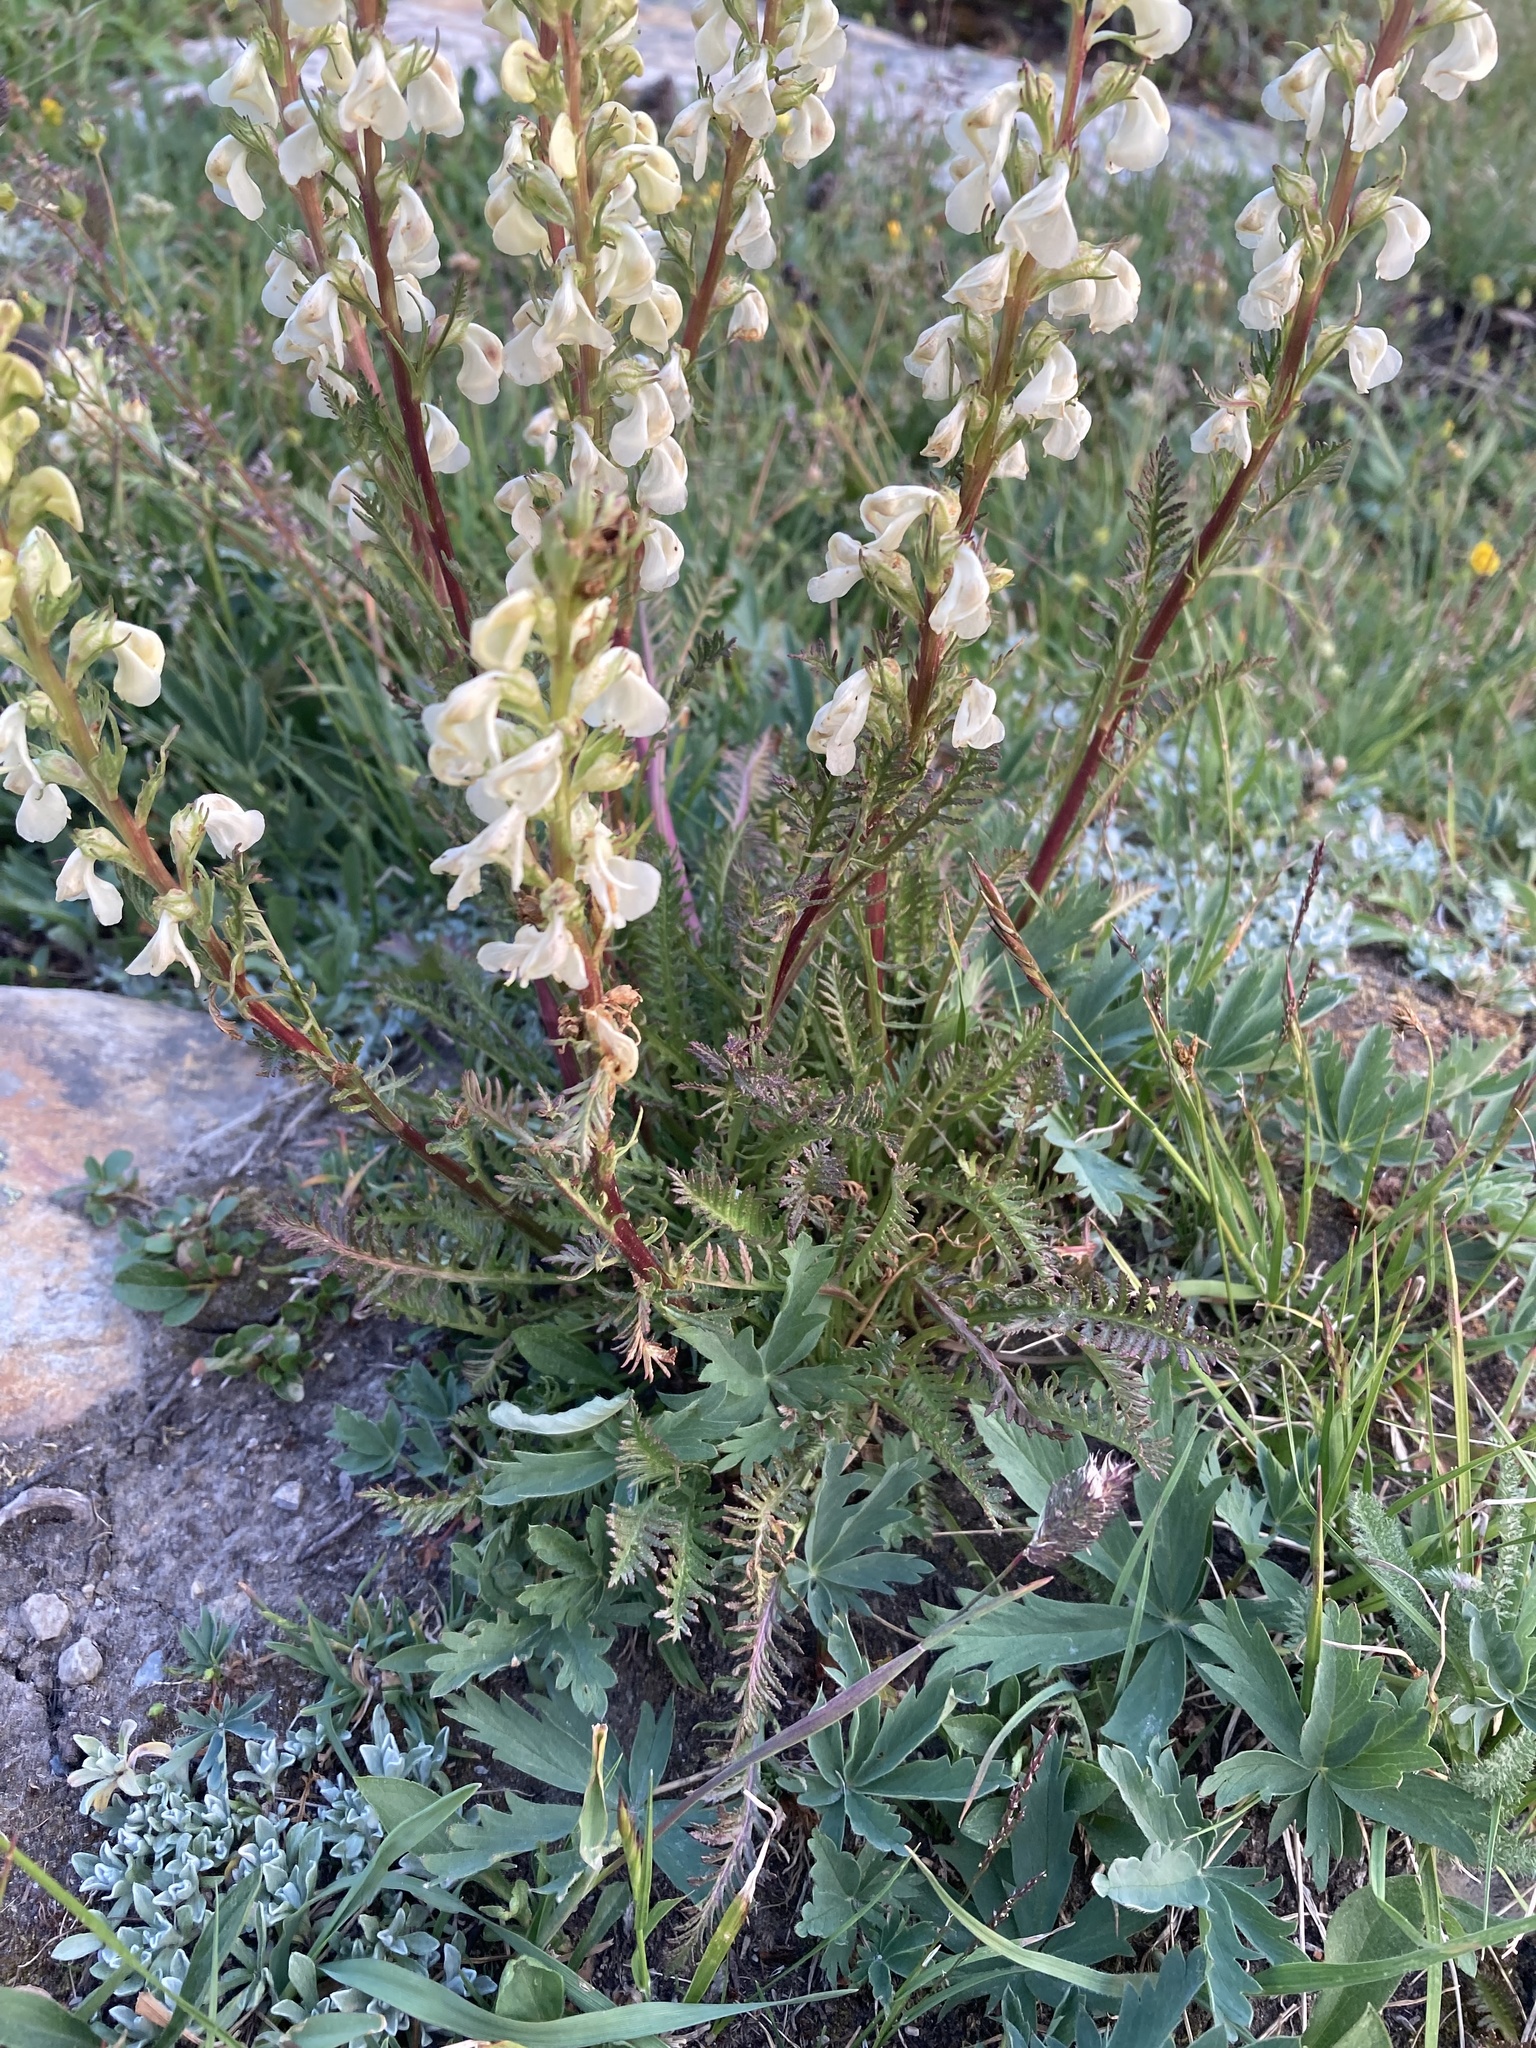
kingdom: Plantae
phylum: Tracheophyta
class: Magnoliopsida
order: Lamiales
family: Orobanchaceae
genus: Pedicularis
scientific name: Pedicularis contorta
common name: Coiled lousewort
